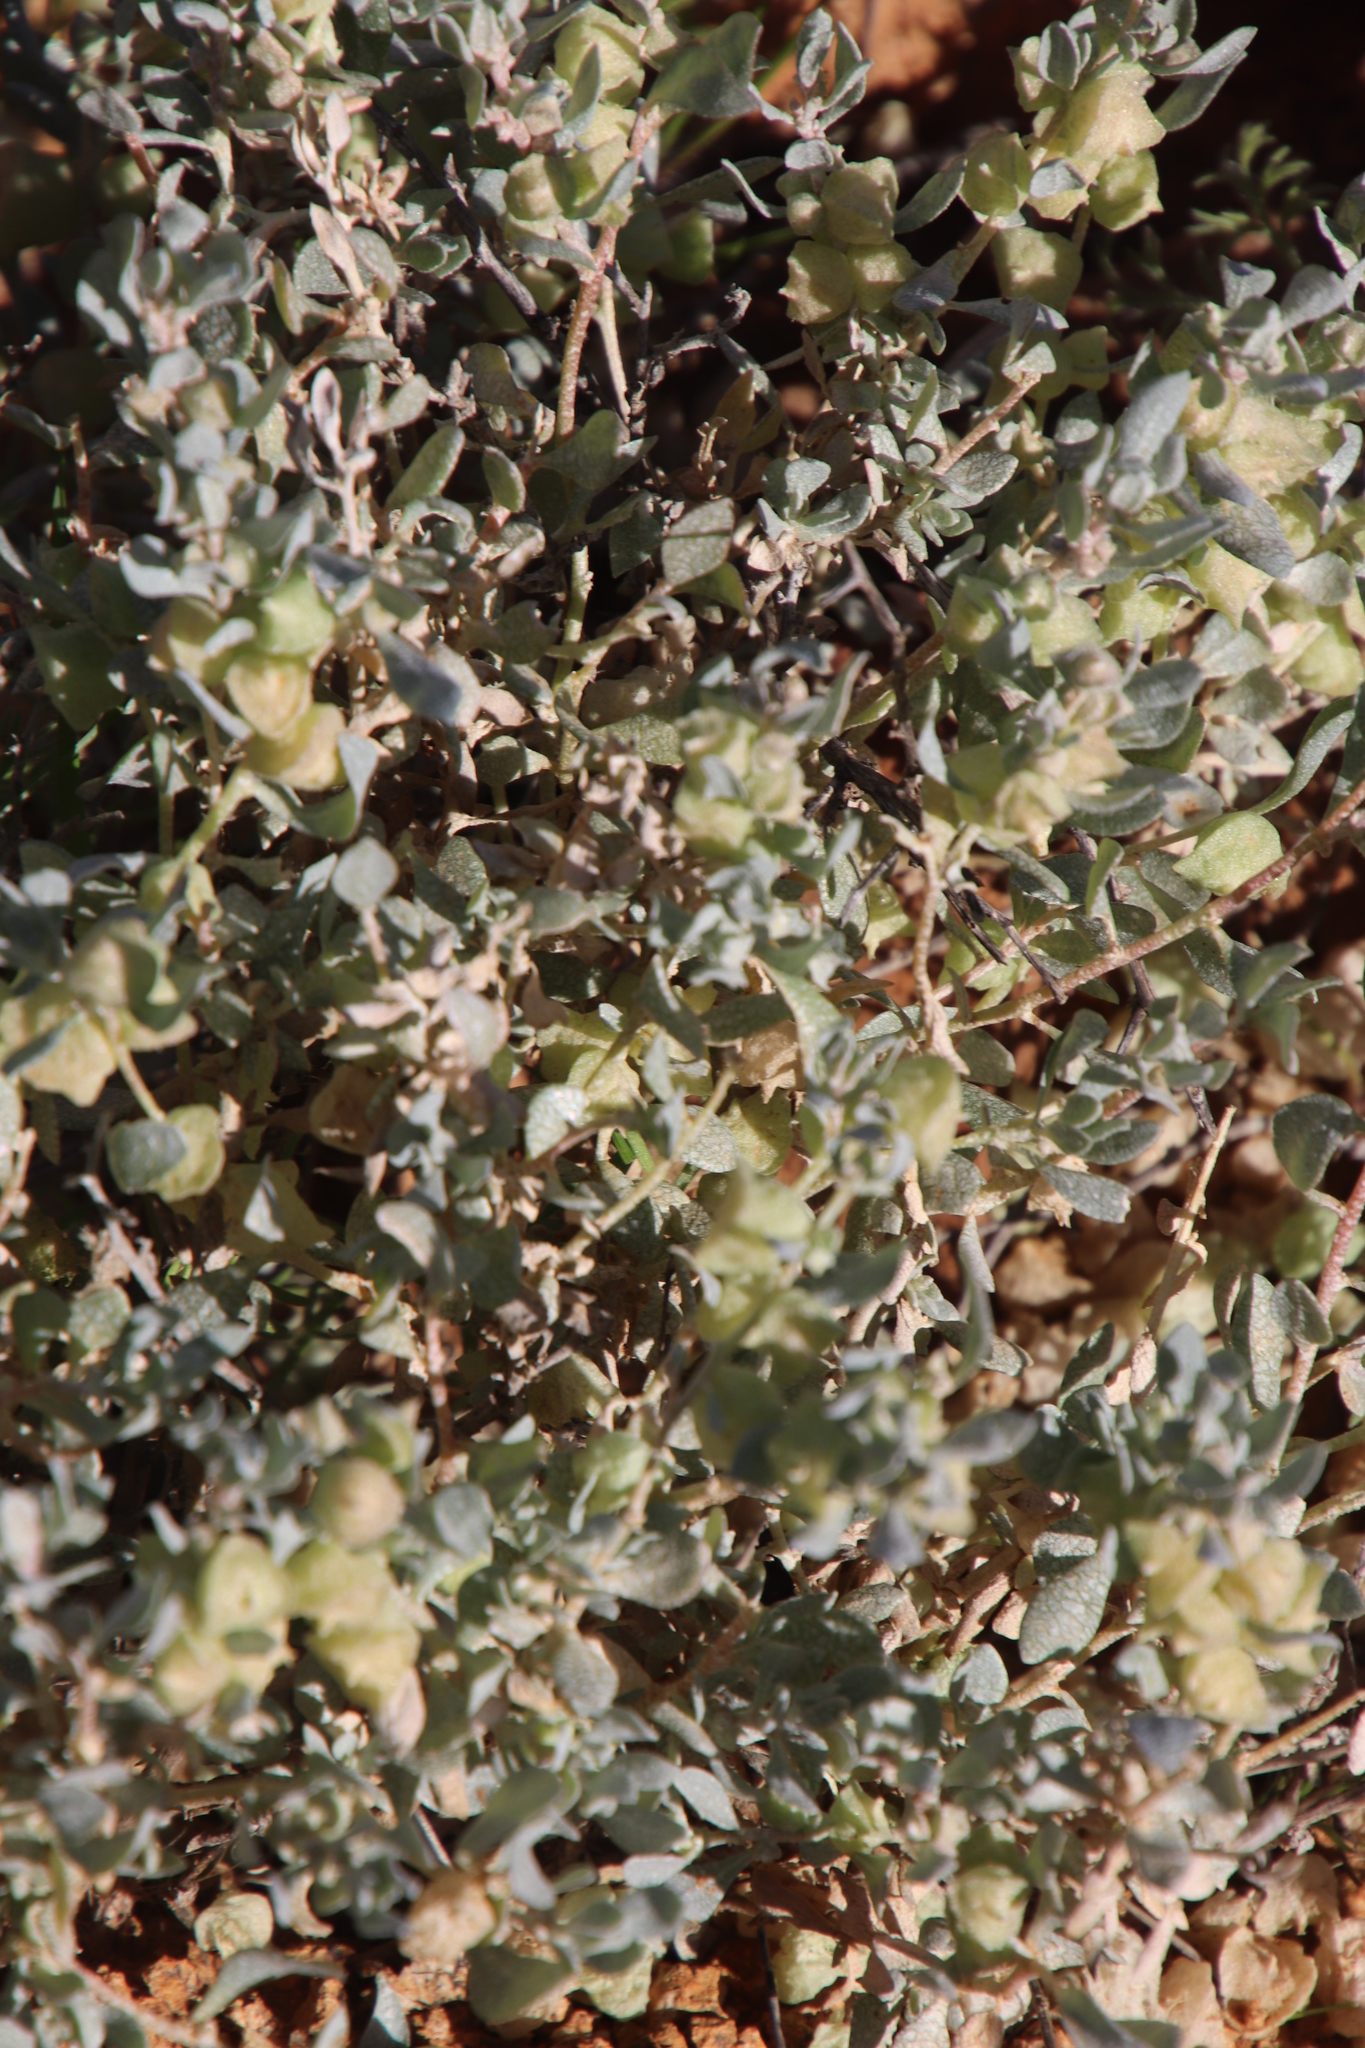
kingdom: Plantae
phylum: Tracheophyta
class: Magnoliopsida
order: Caryophyllales
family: Amaranthaceae
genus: Atriplex
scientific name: Atriplex lindleyi
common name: Lindley's saltbush
